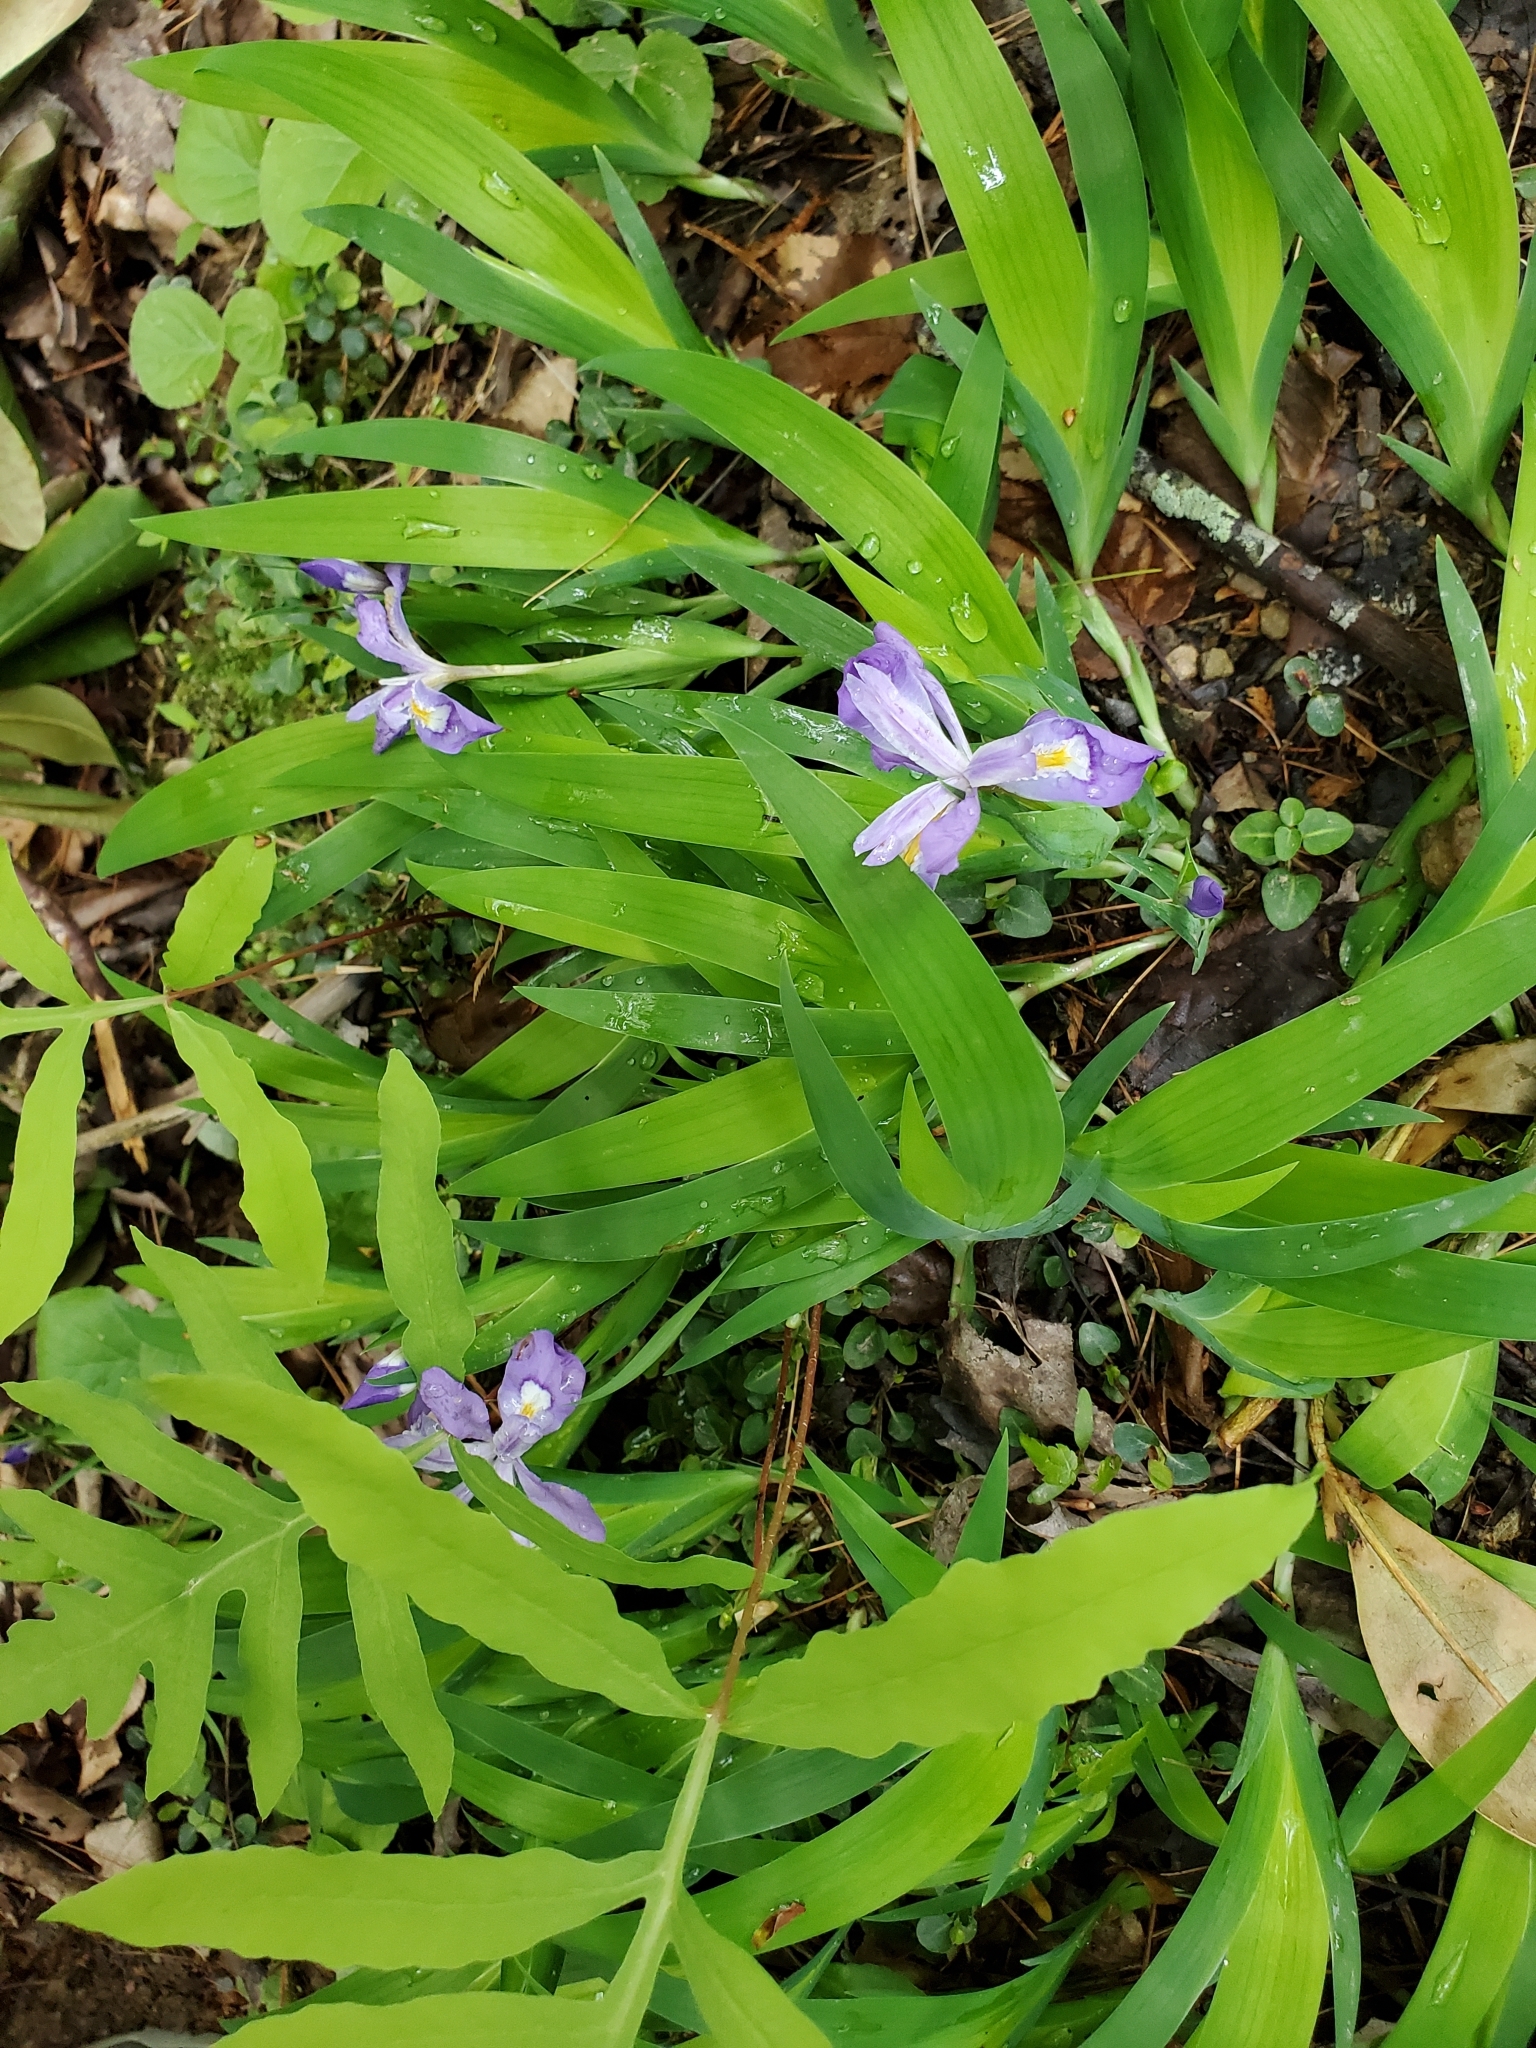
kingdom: Plantae
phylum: Tracheophyta
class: Liliopsida
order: Asparagales
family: Iridaceae
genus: Iris
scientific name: Iris cristata
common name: Crested iris
